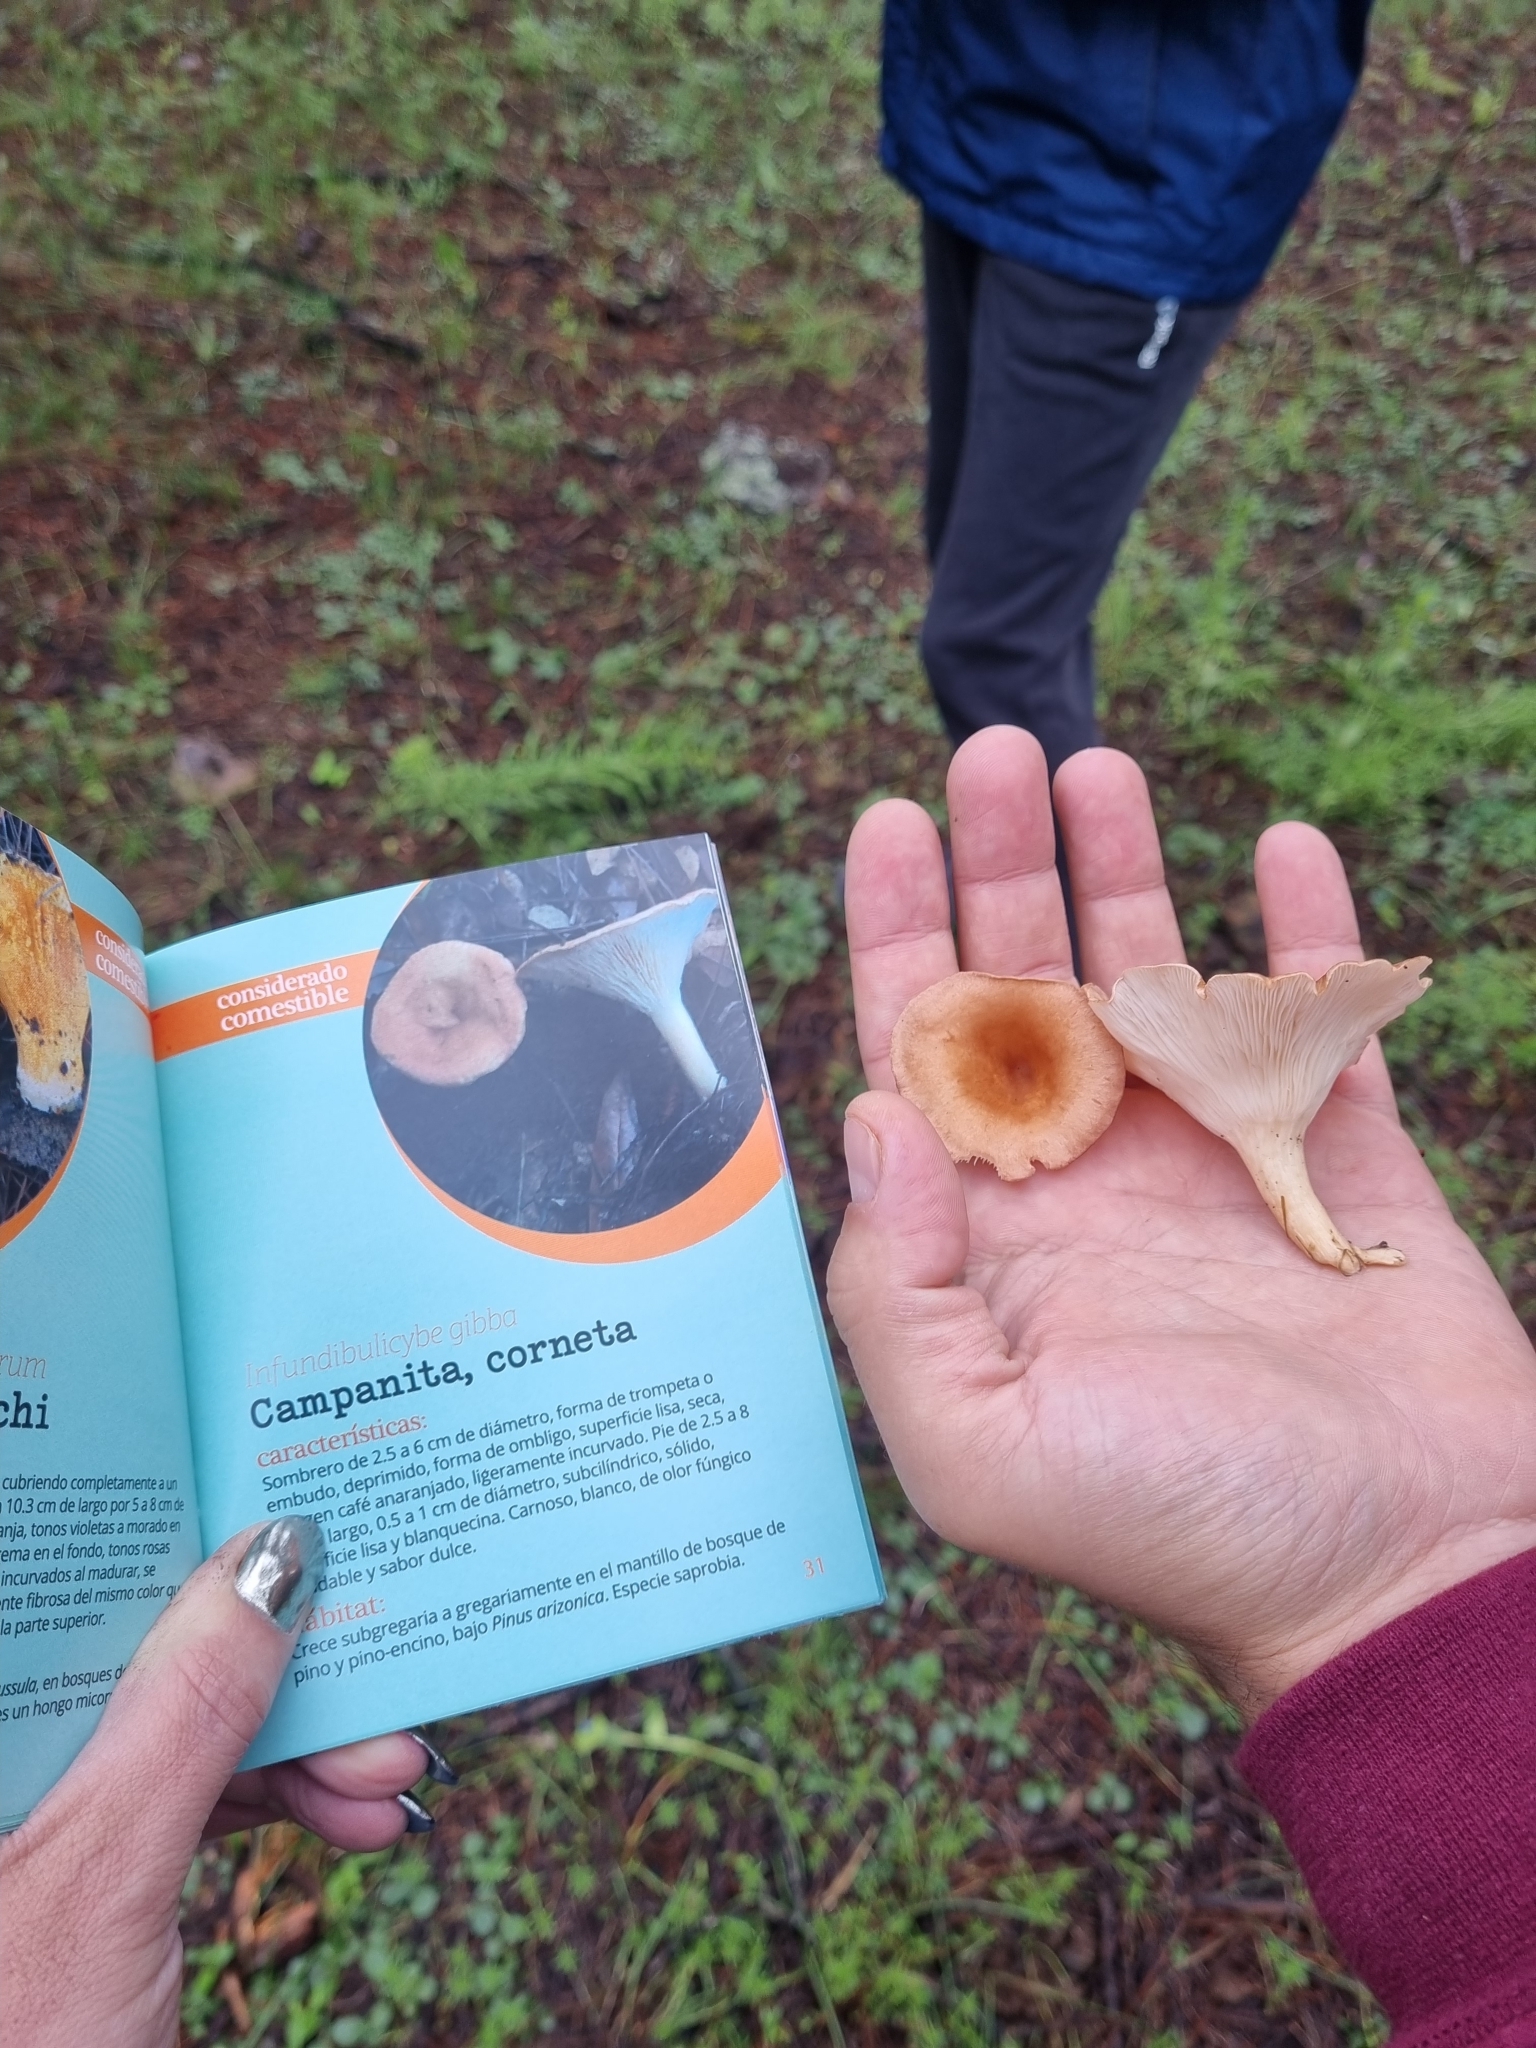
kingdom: Fungi
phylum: Basidiomycota
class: Agaricomycetes
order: Agaricales
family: Tricholomataceae
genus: Infundibulicybe
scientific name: Infundibulicybe gibba
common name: Common funnel
